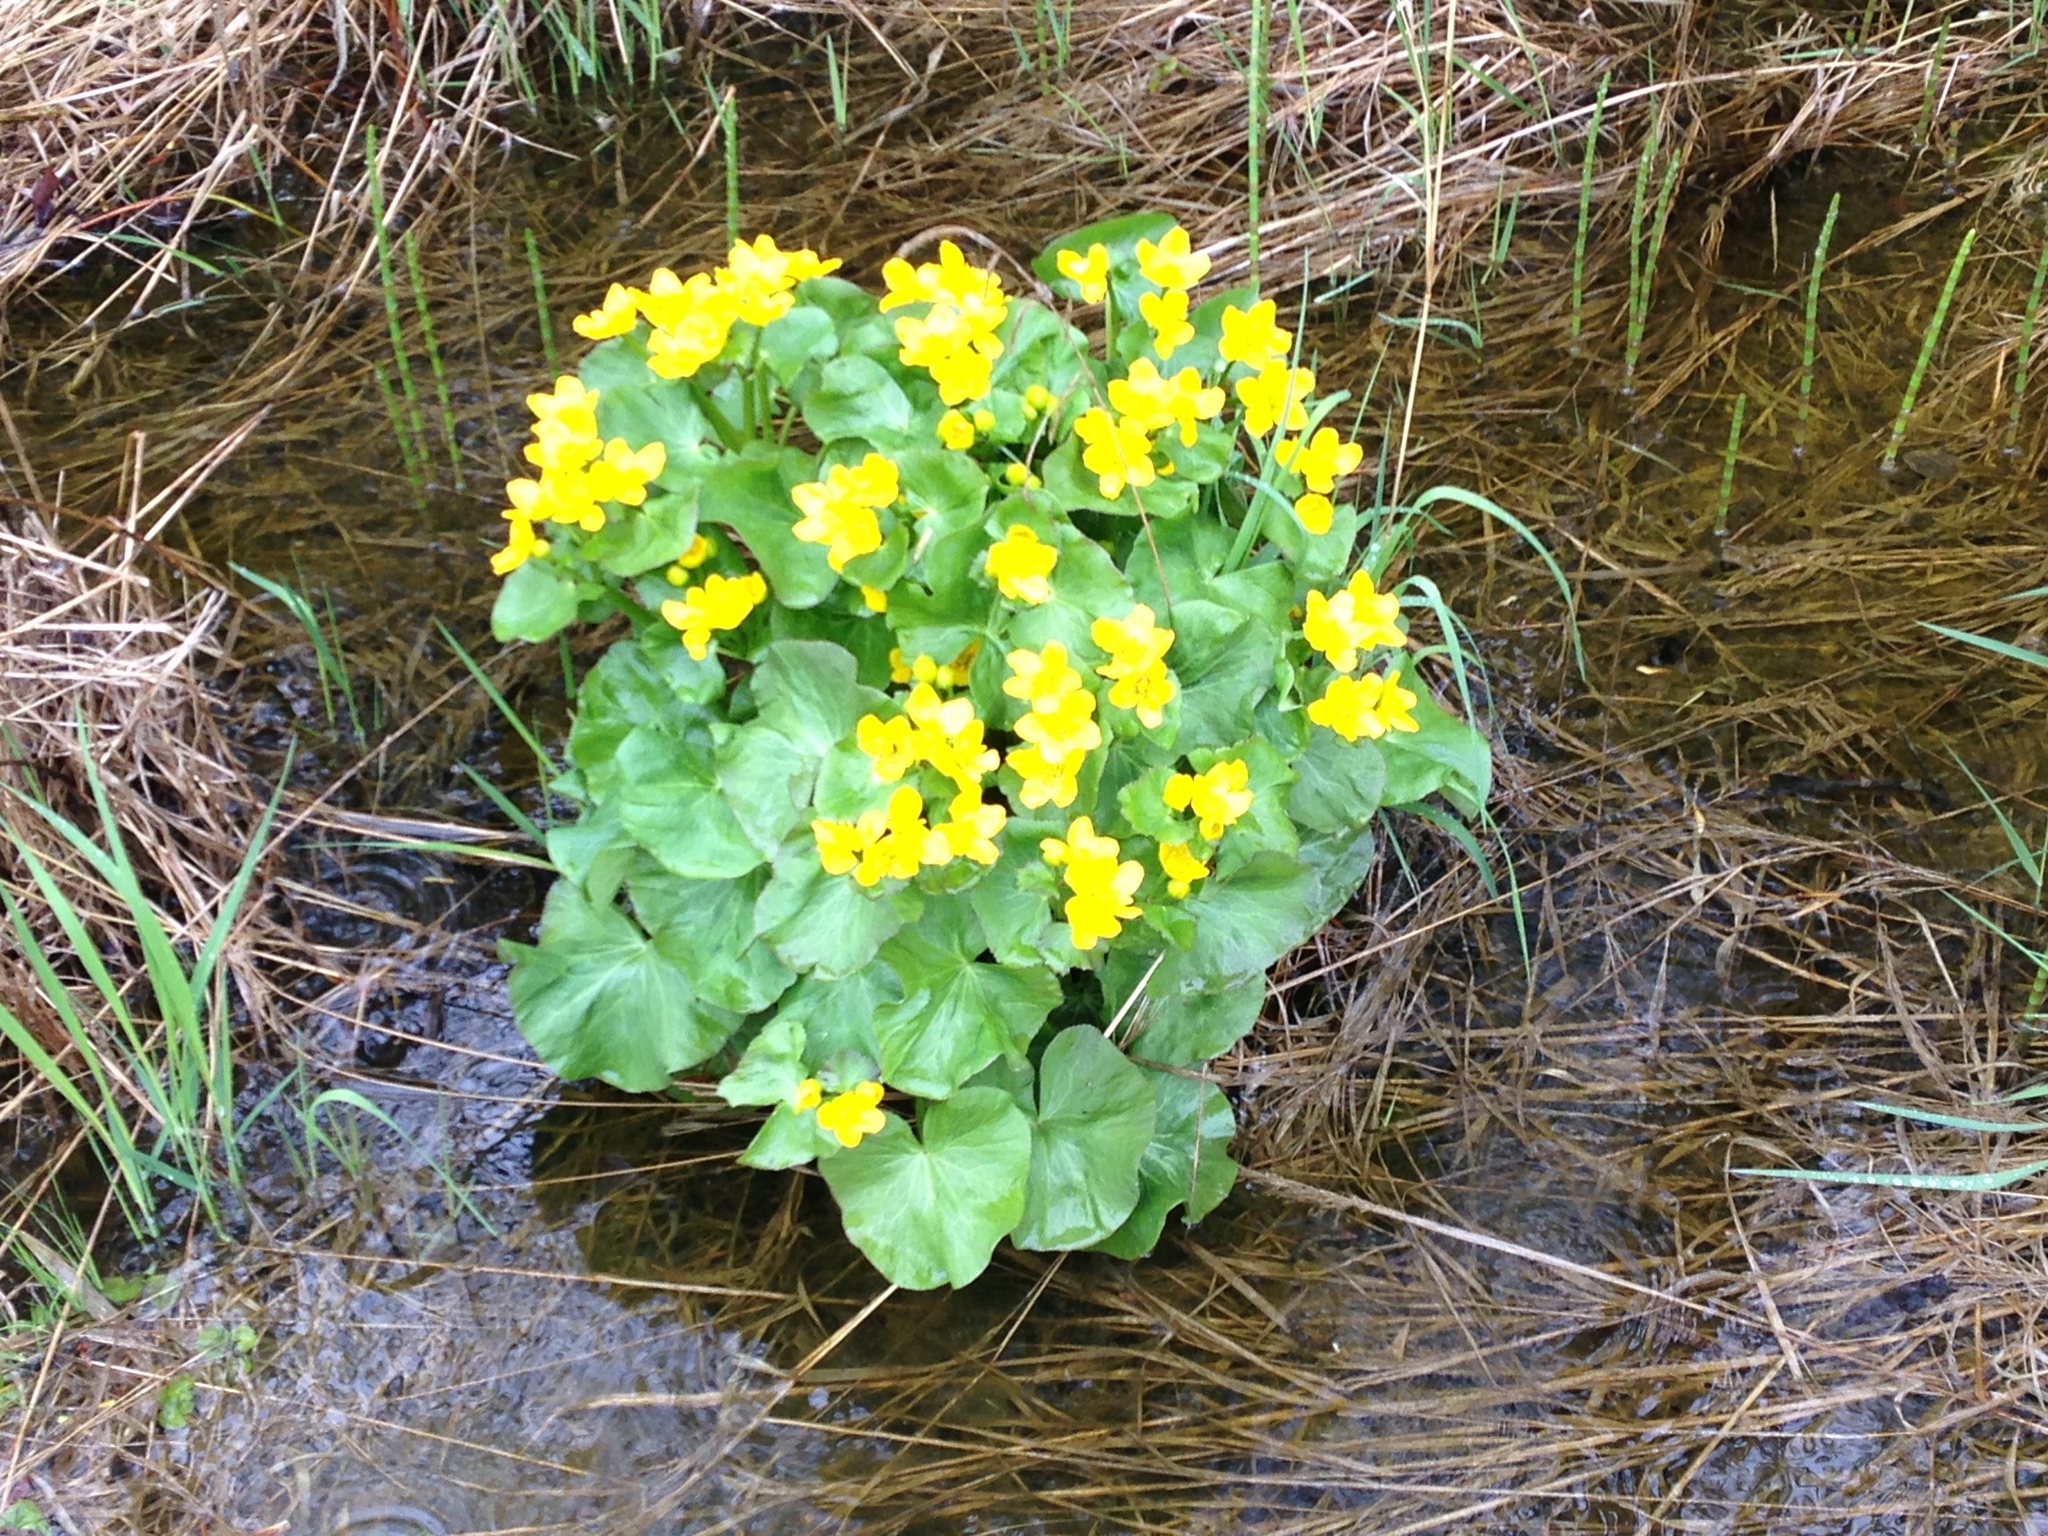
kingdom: Plantae
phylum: Tracheophyta
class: Magnoliopsida
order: Ranunculales
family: Ranunculaceae
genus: Caltha
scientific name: Caltha palustris
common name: Marsh marigold
